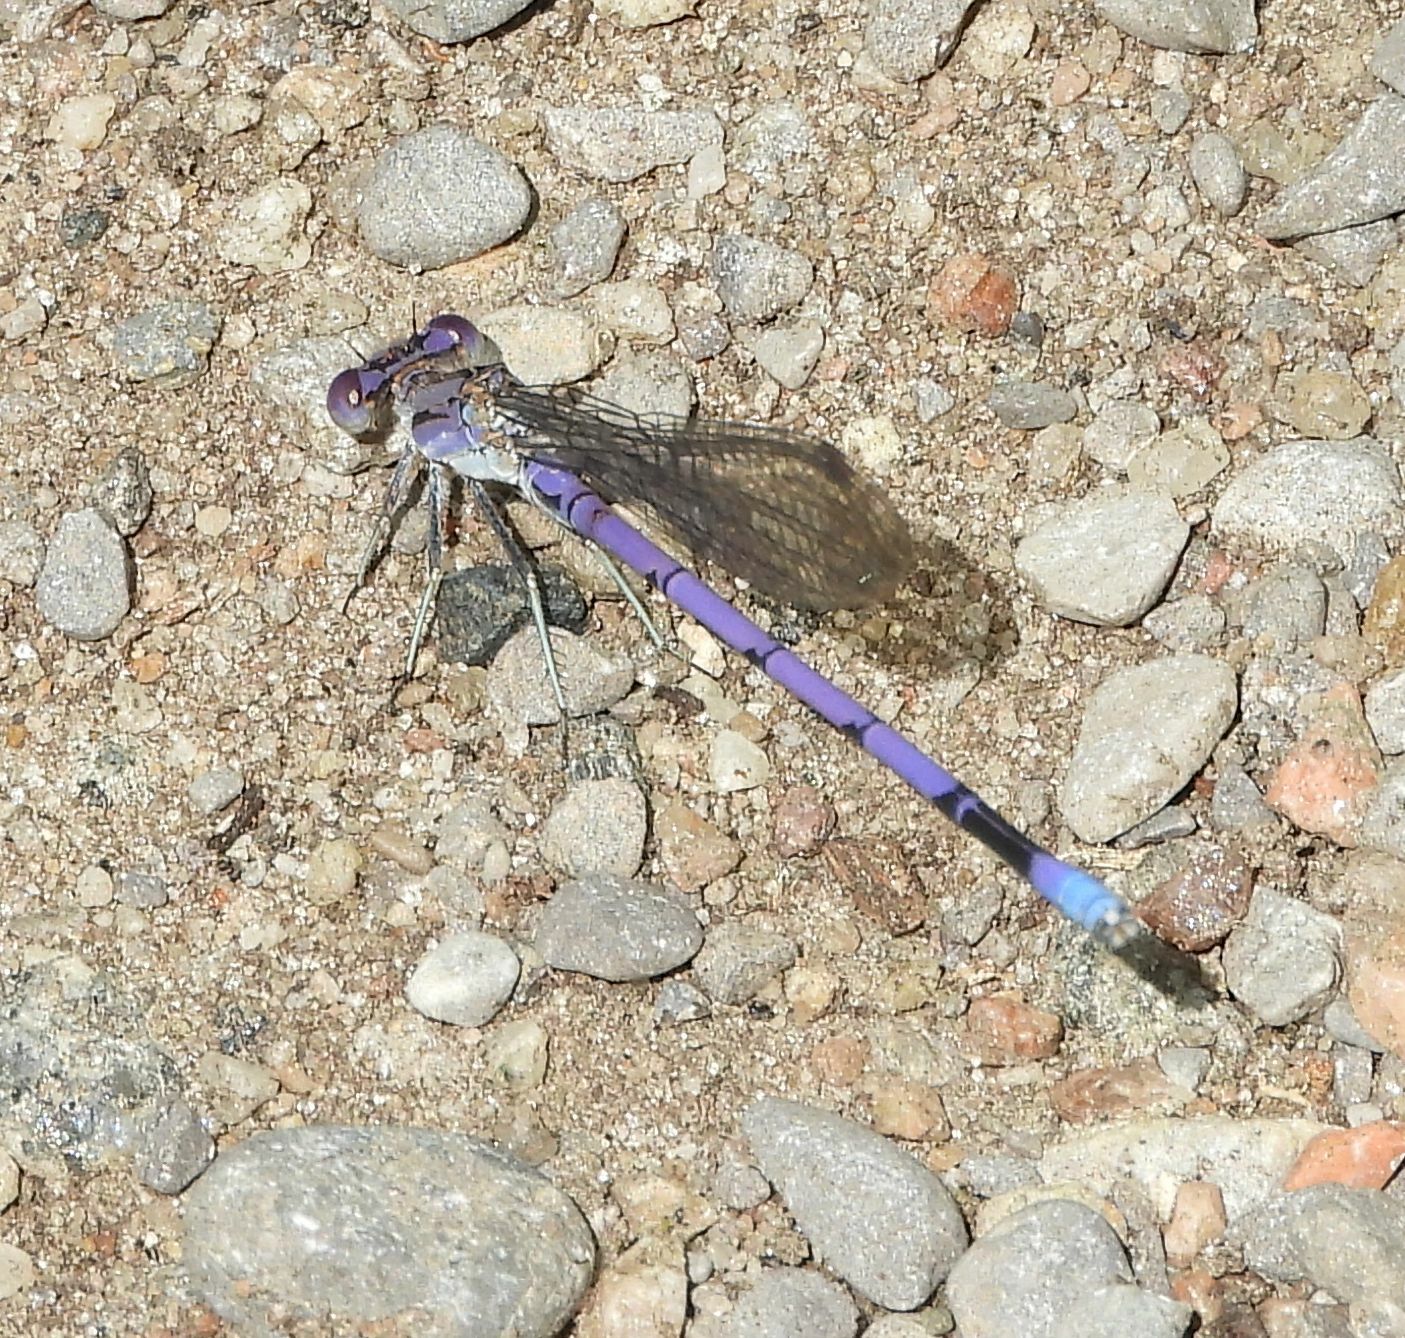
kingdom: Animalia
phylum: Arthropoda
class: Insecta
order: Odonata
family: Coenagrionidae
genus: Argia
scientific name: Argia fumipennis
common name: Variable dancer
